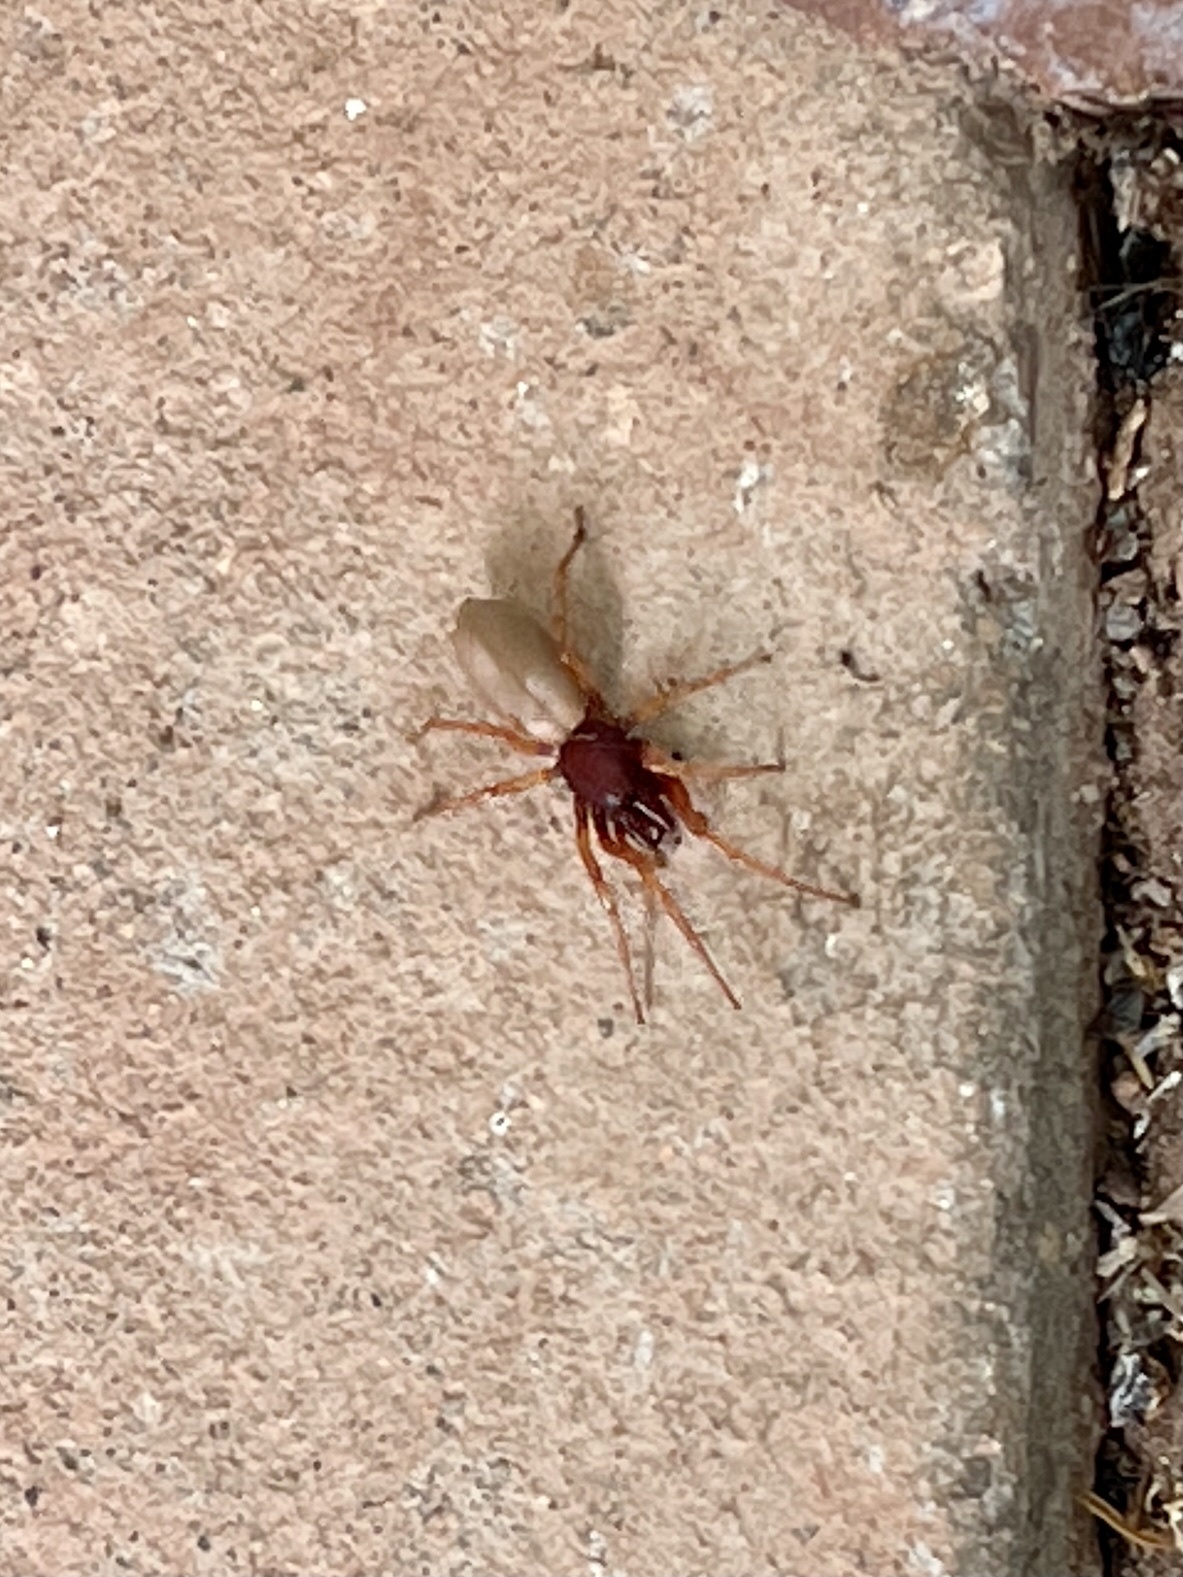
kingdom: Animalia
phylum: Arthropoda
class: Arachnida
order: Araneae
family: Dysderidae
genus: Dysdera
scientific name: Dysdera crocata
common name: Woodlouse spider
